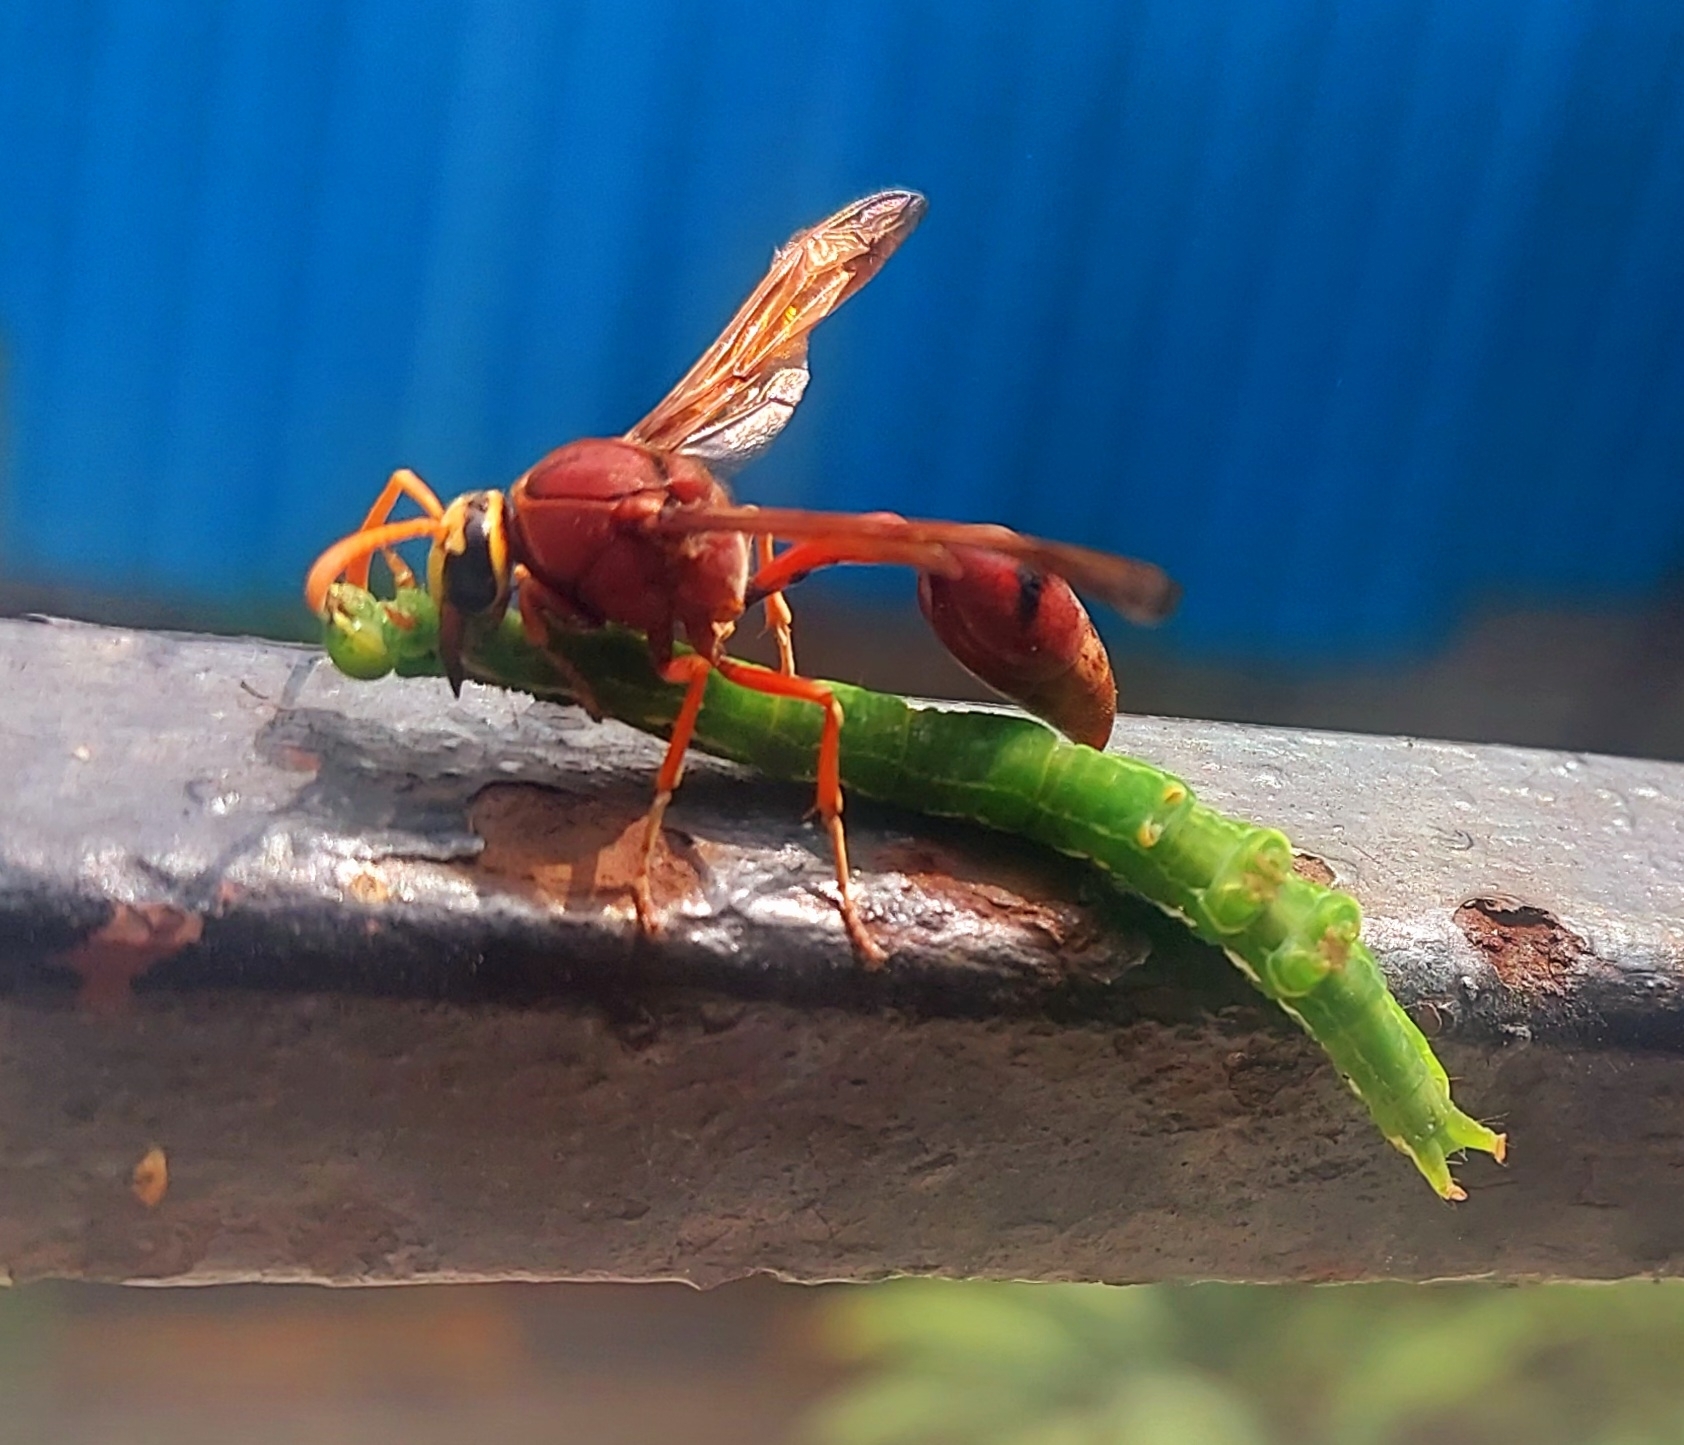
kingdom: Animalia
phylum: Arthropoda
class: Insecta
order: Hymenoptera
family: Eumenidae
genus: Delta
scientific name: Delta conoideum
